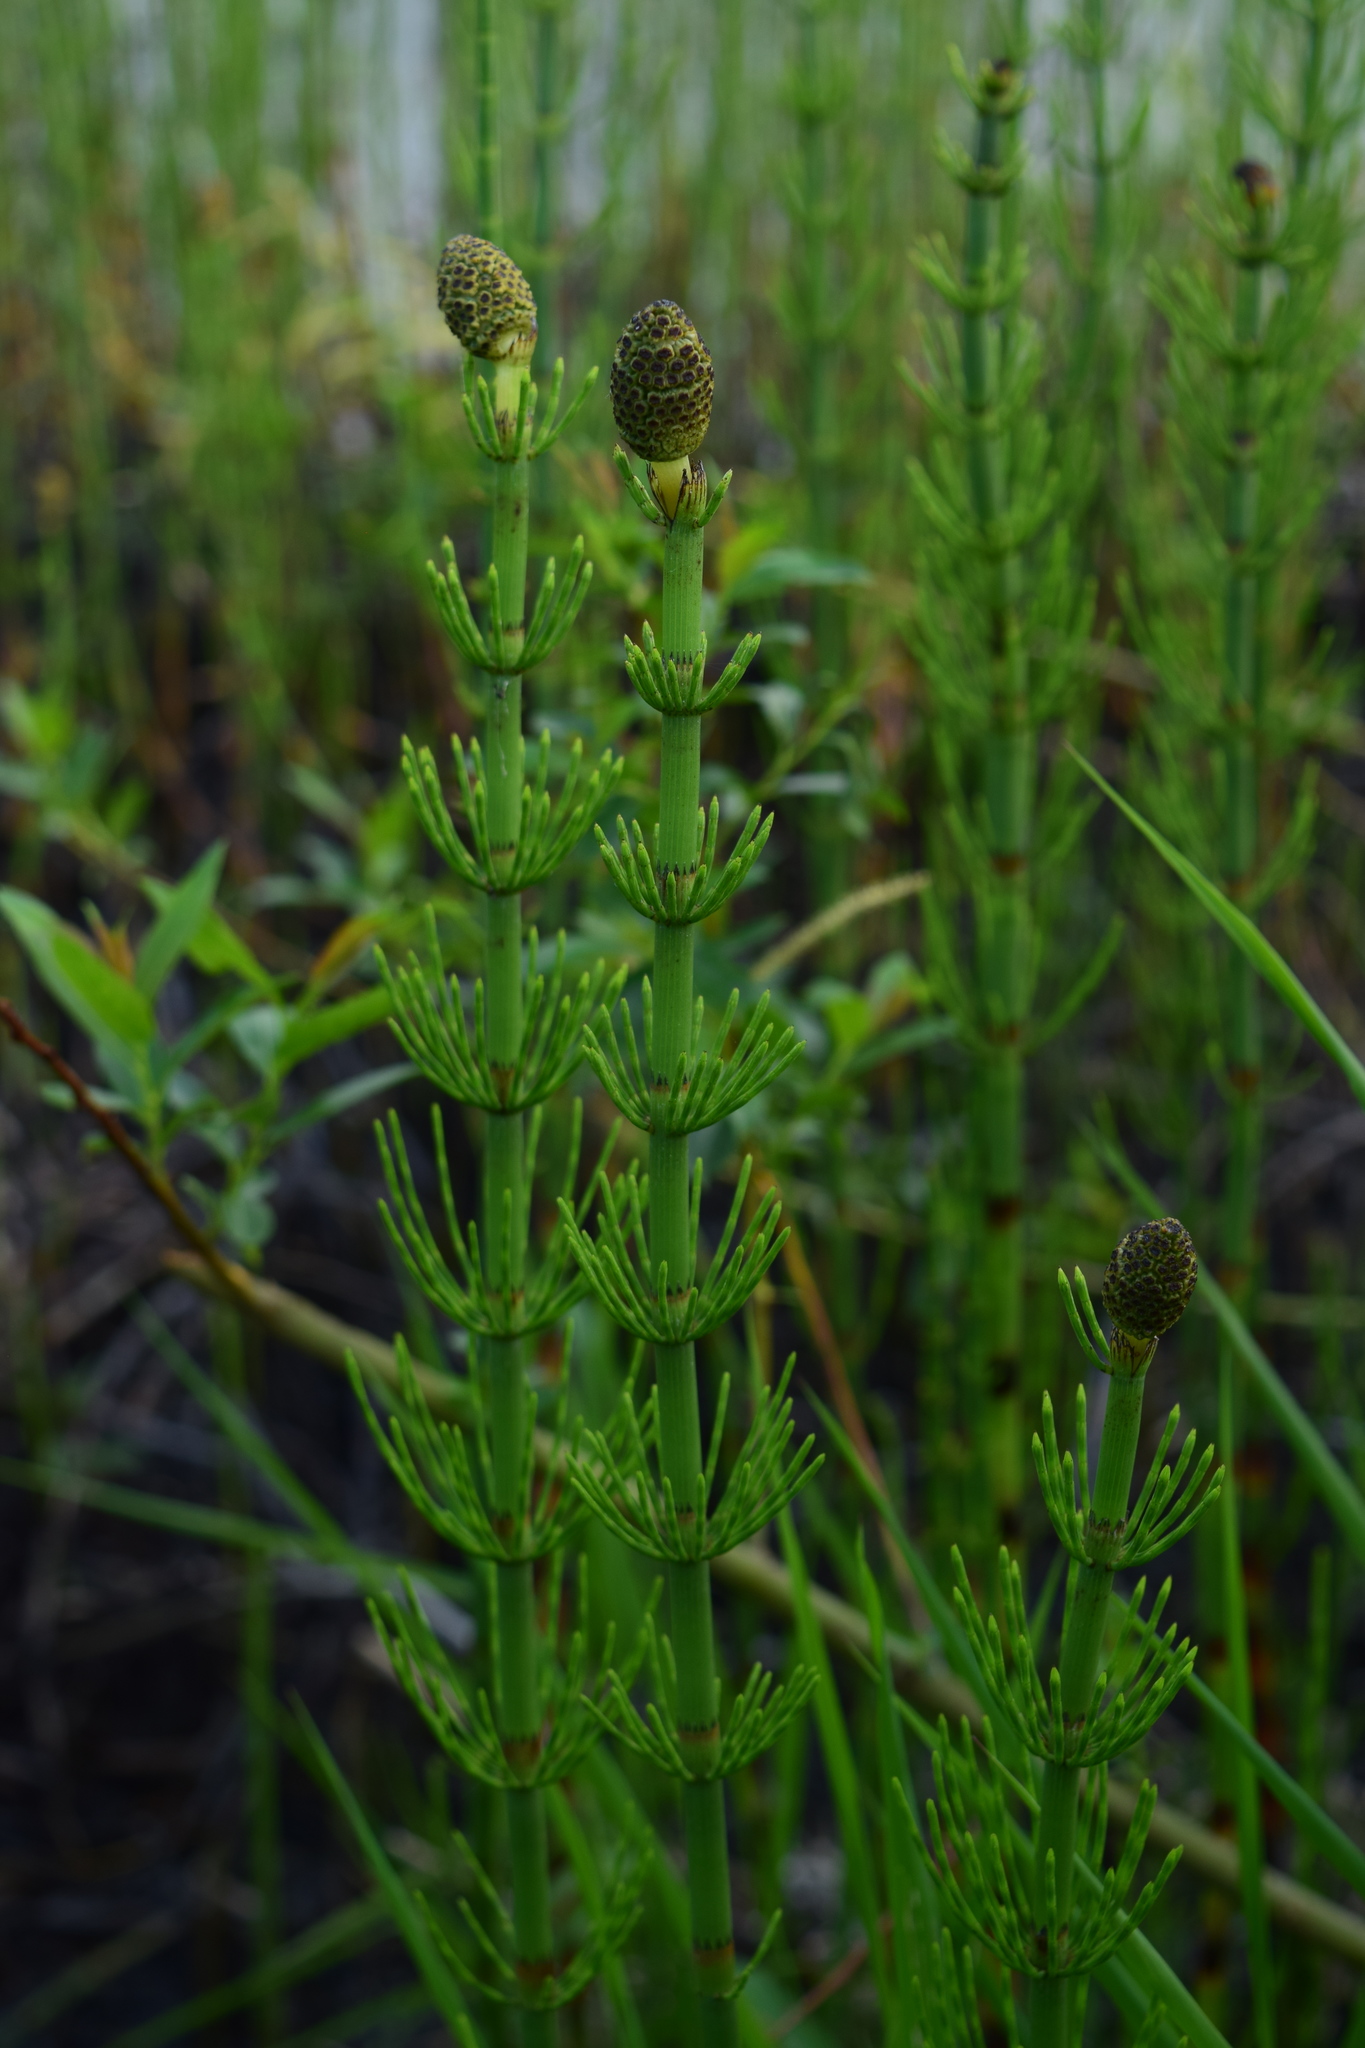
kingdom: Plantae
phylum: Tracheophyta
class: Polypodiopsida
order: Equisetales
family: Equisetaceae
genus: Equisetum
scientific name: Equisetum fluviatile
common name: Water horsetail
